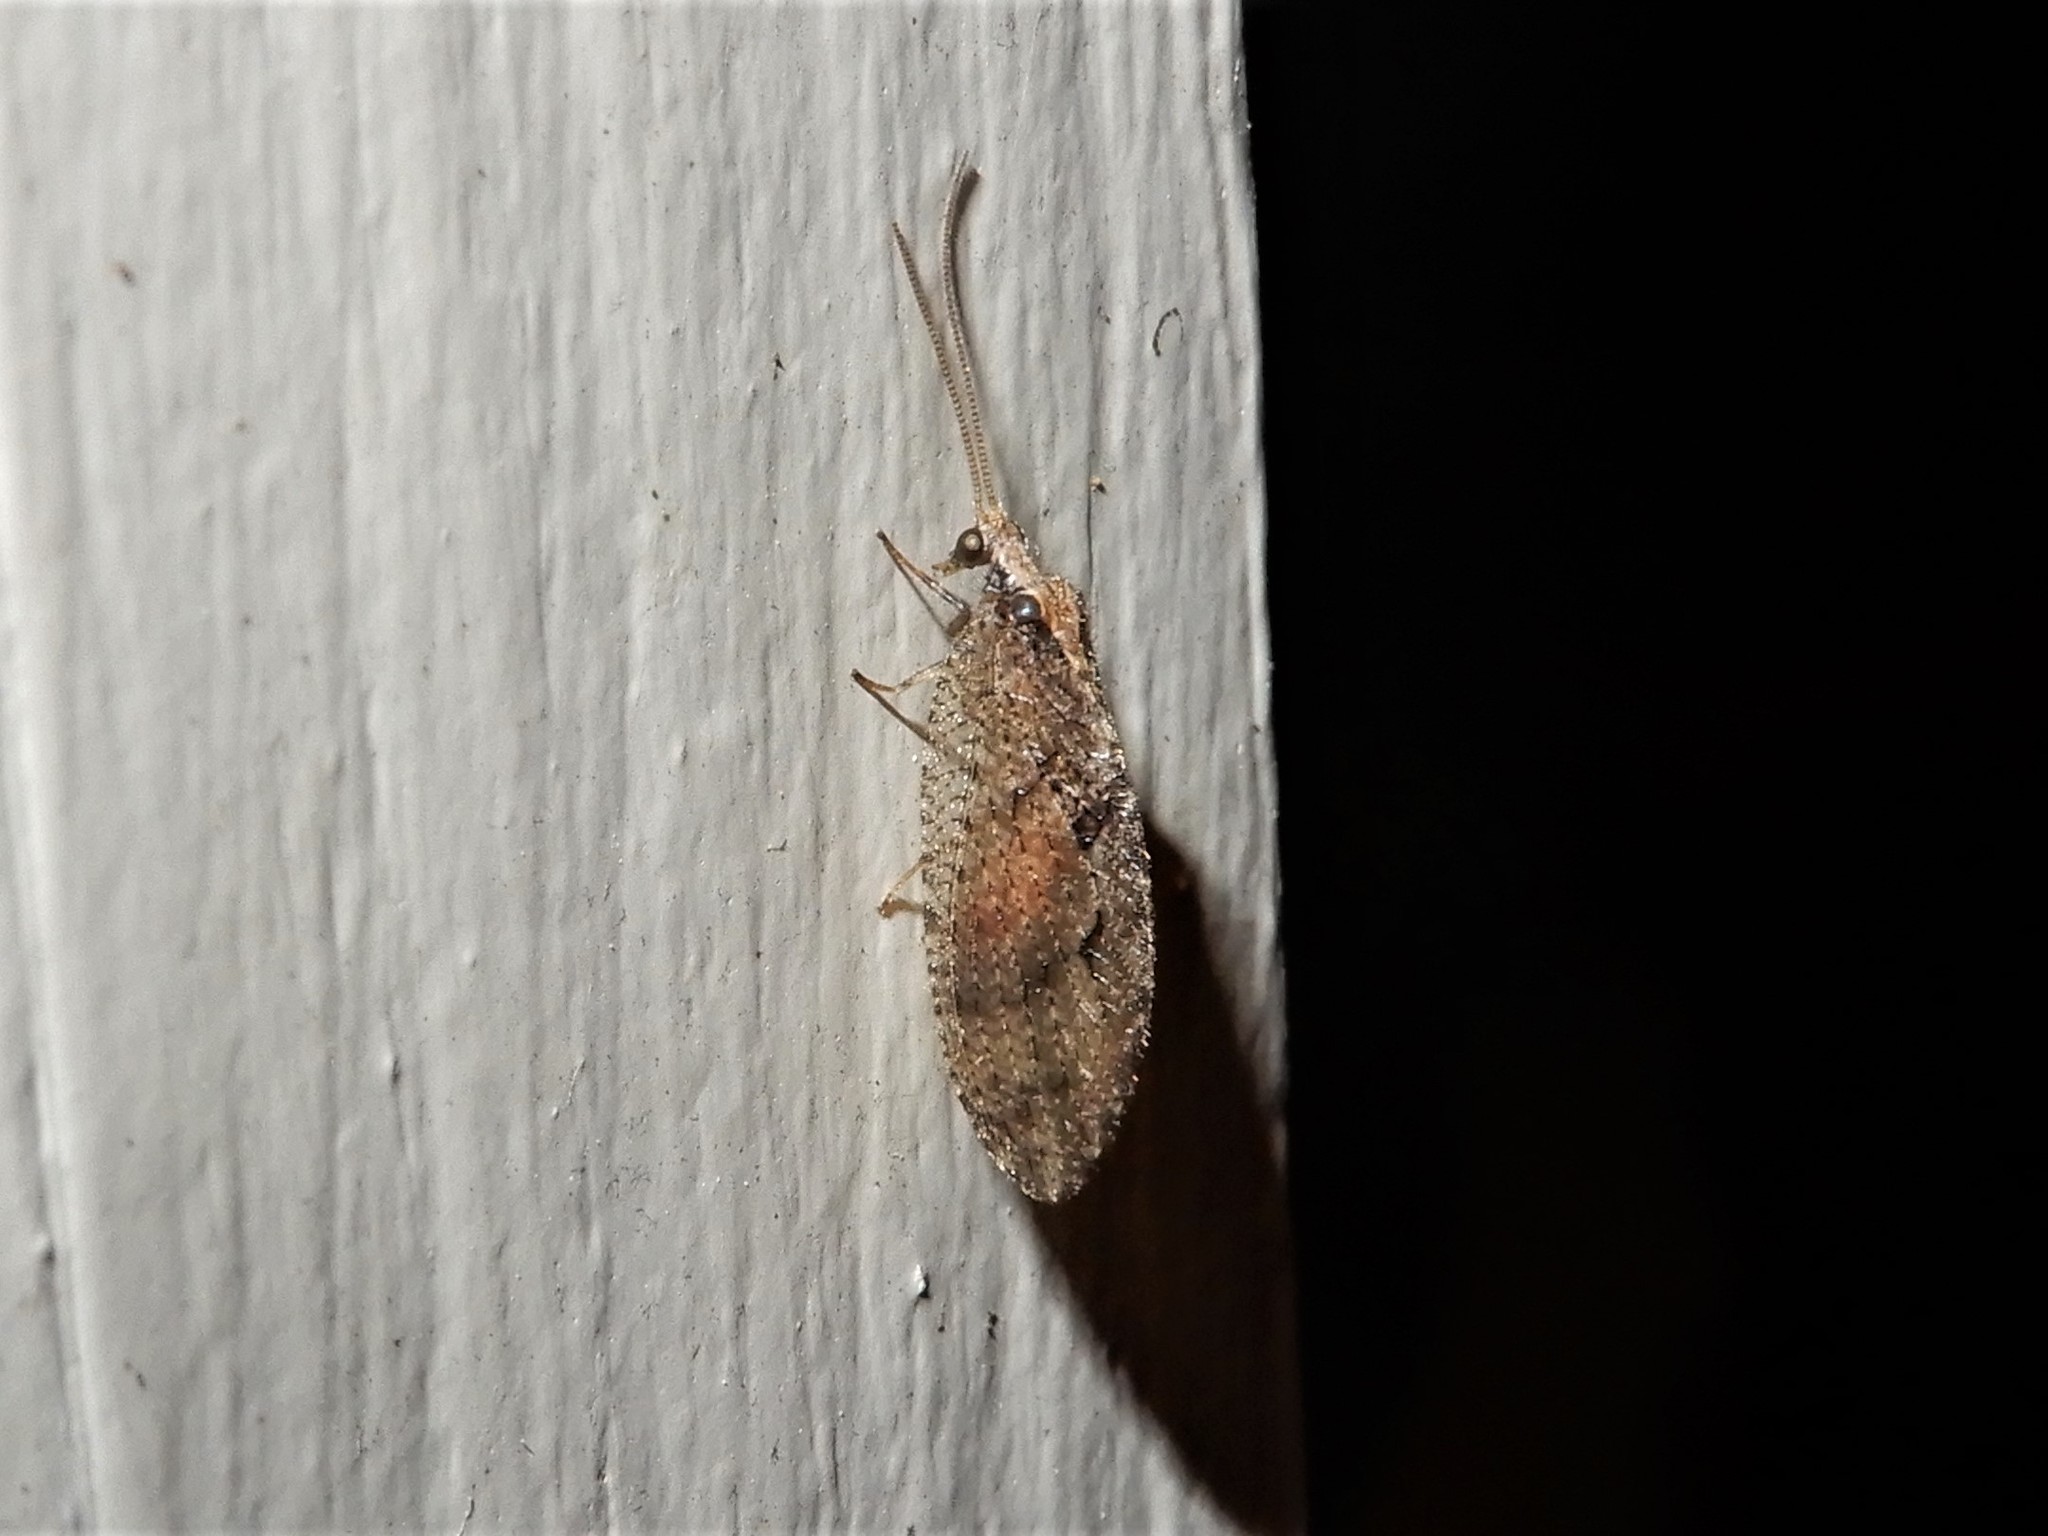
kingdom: Animalia
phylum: Arthropoda
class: Insecta
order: Neuroptera
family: Hemerobiidae
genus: Wesmaelius
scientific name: Wesmaelius subnebulosus
